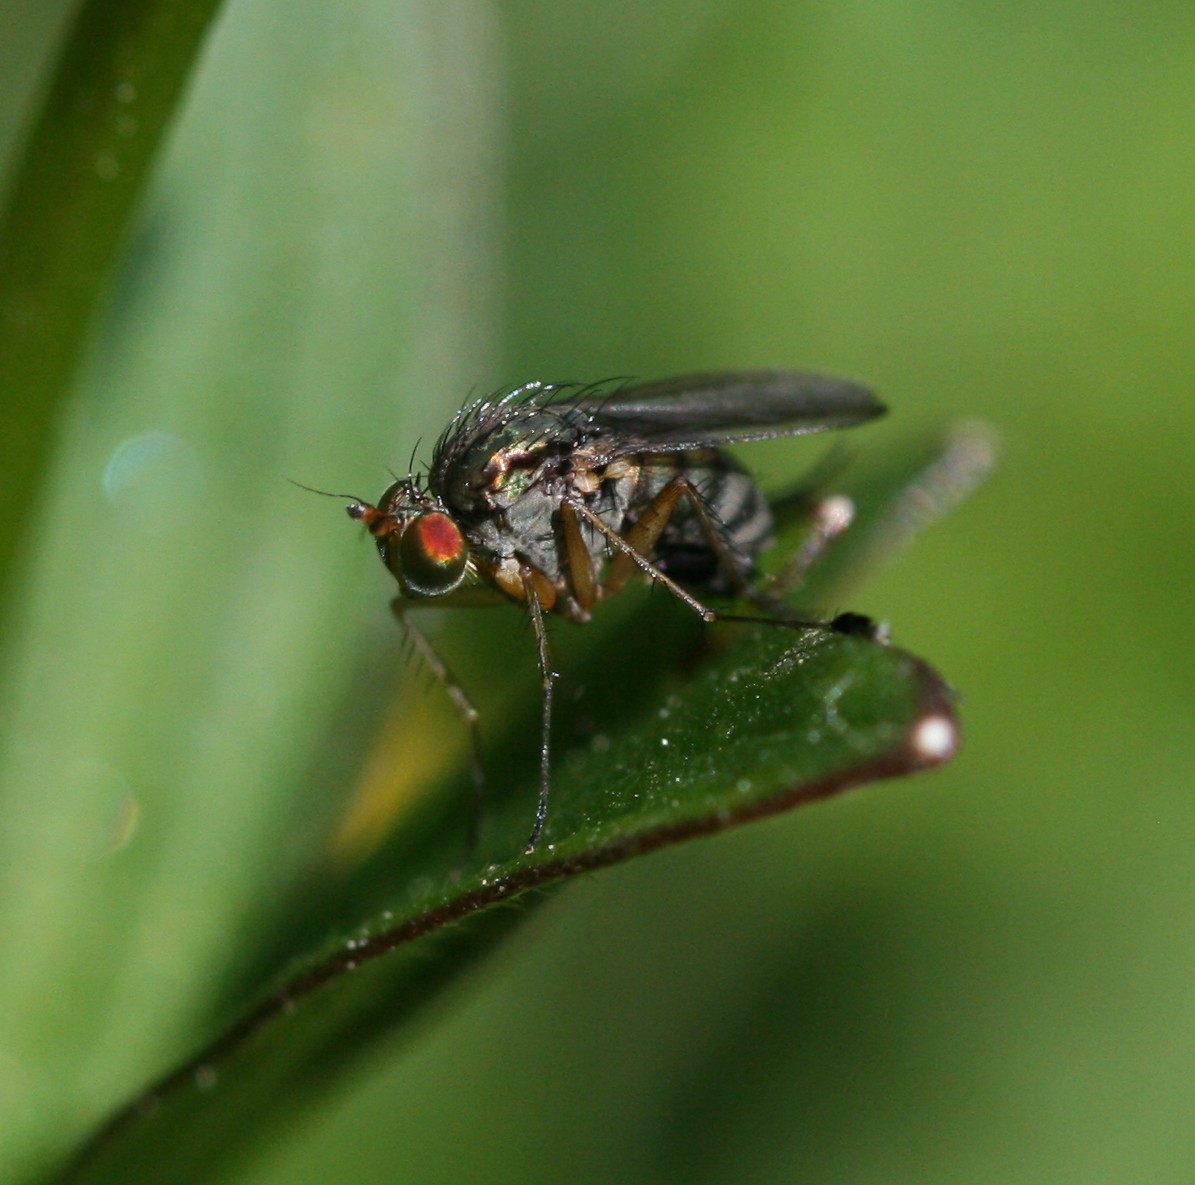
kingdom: Animalia
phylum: Arthropoda
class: Insecta
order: Diptera
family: Dolichopodidae
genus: Dolichopus
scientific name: Dolichopus popularis
